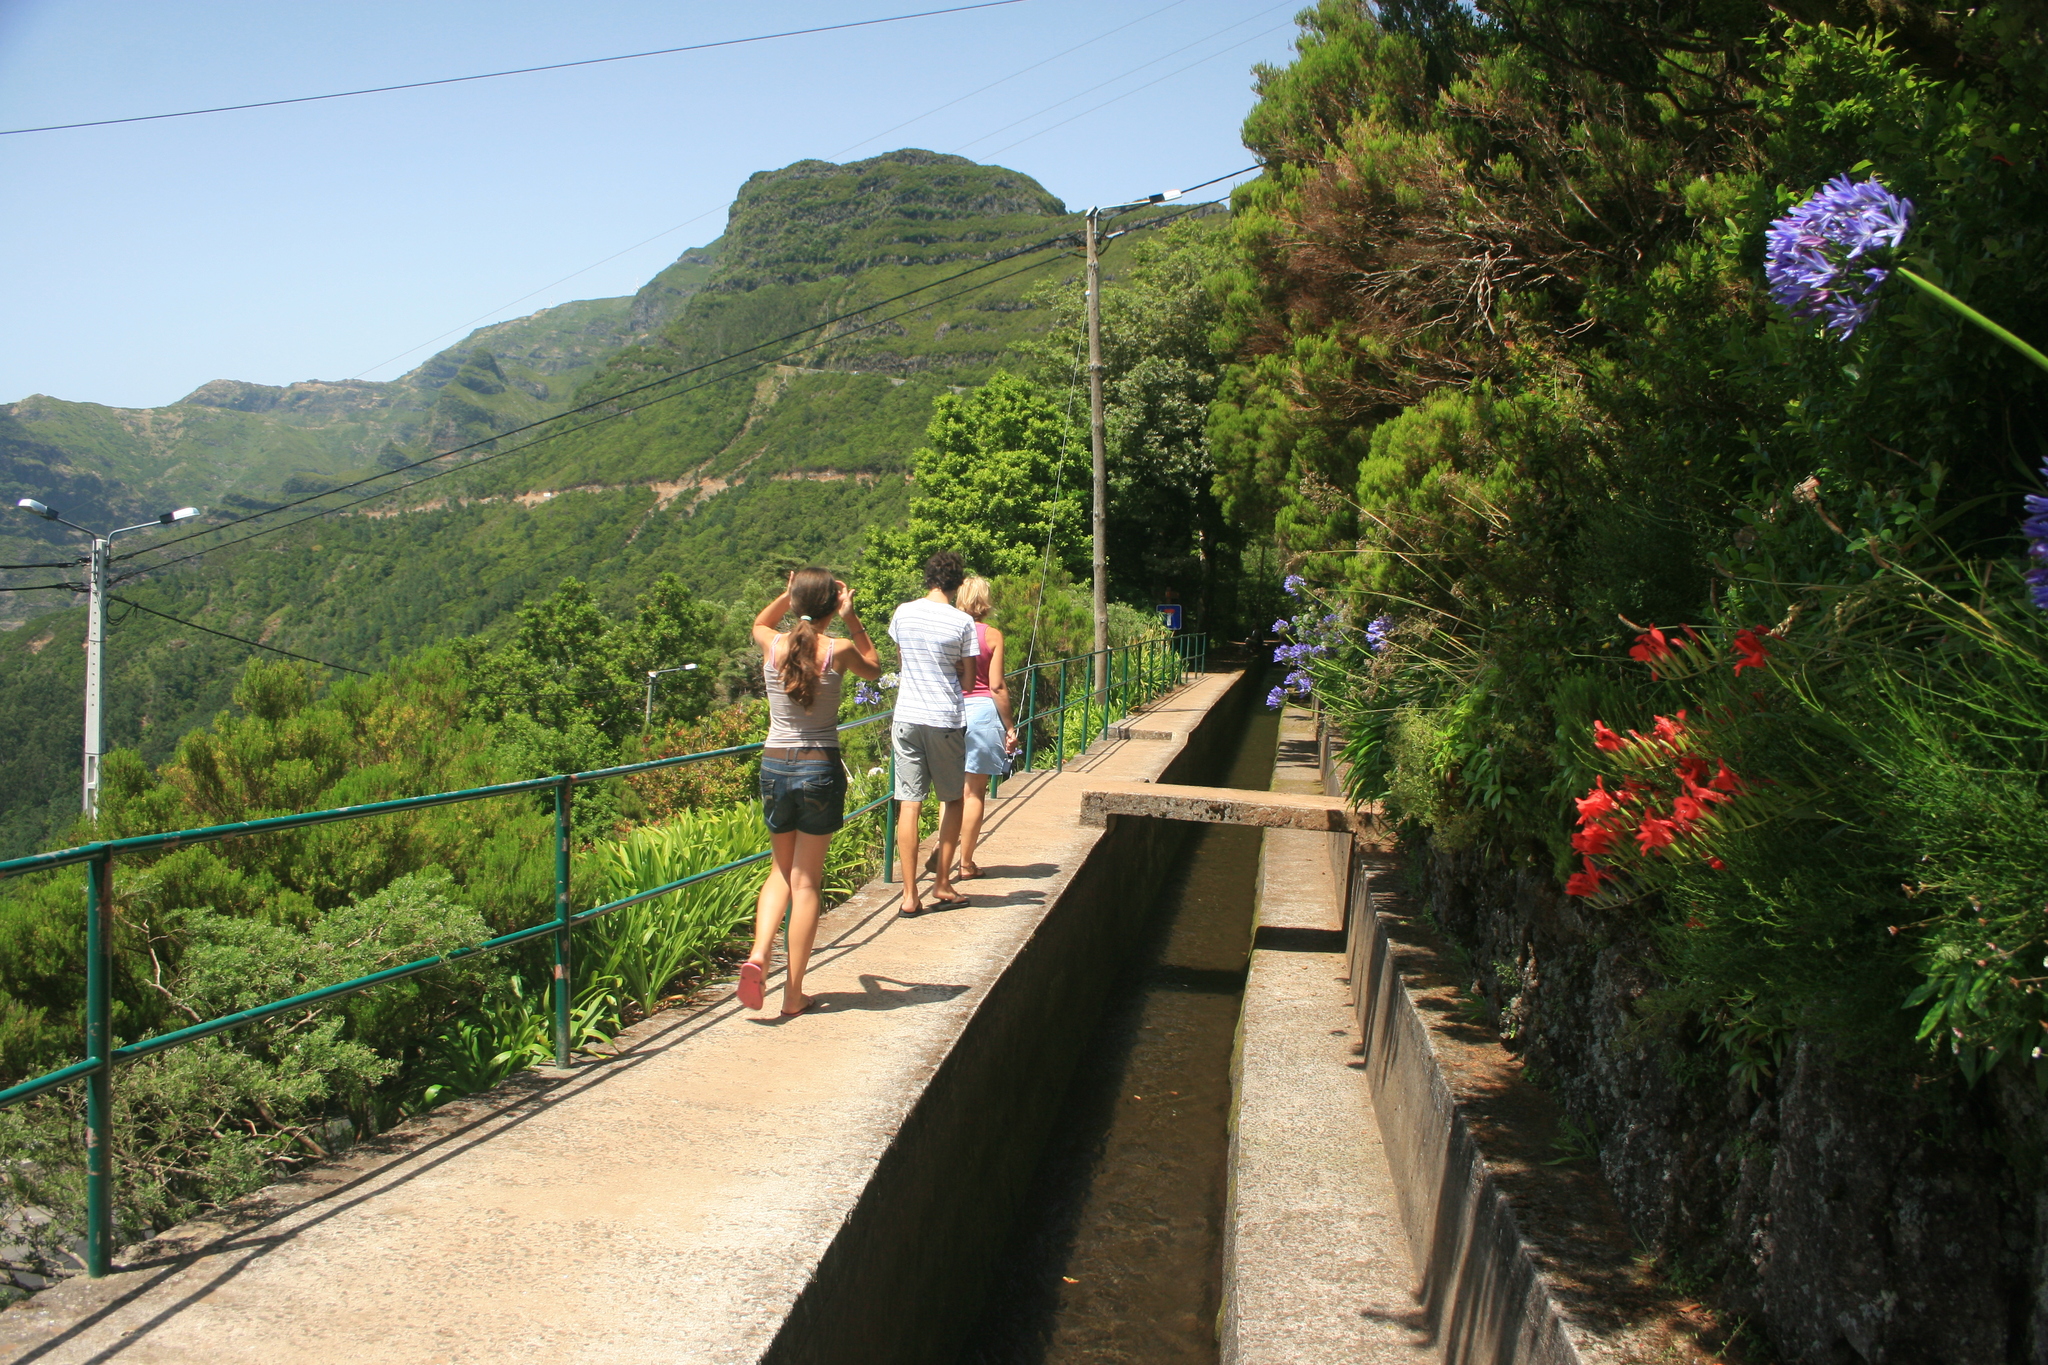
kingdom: Plantae
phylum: Tracheophyta
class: Liliopsida
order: Asparagales
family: Amaryllidaceae
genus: Agapanthus
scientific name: Agapanthus praecox
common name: African-lily
